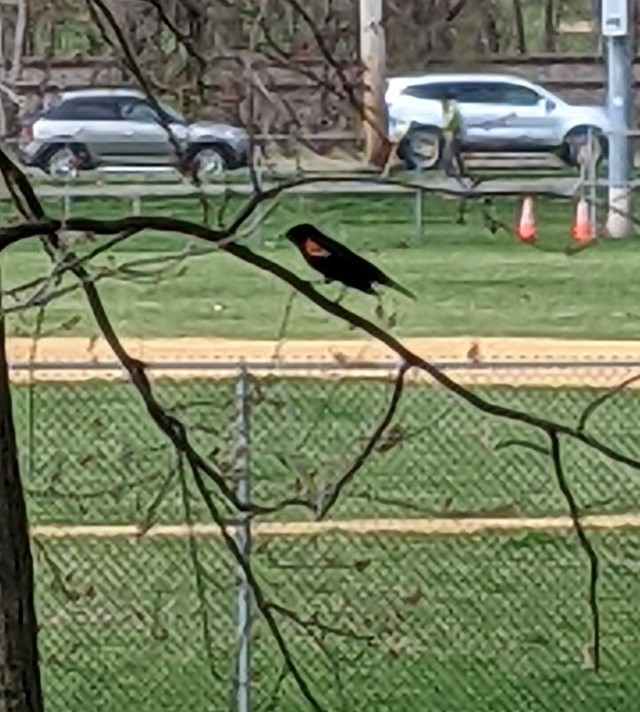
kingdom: Animalia
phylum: Chordata
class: Aves
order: Passeriformes
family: Icteridae
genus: Agelaius
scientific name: Agelaius phoeniceus
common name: Red-winged blackbird
